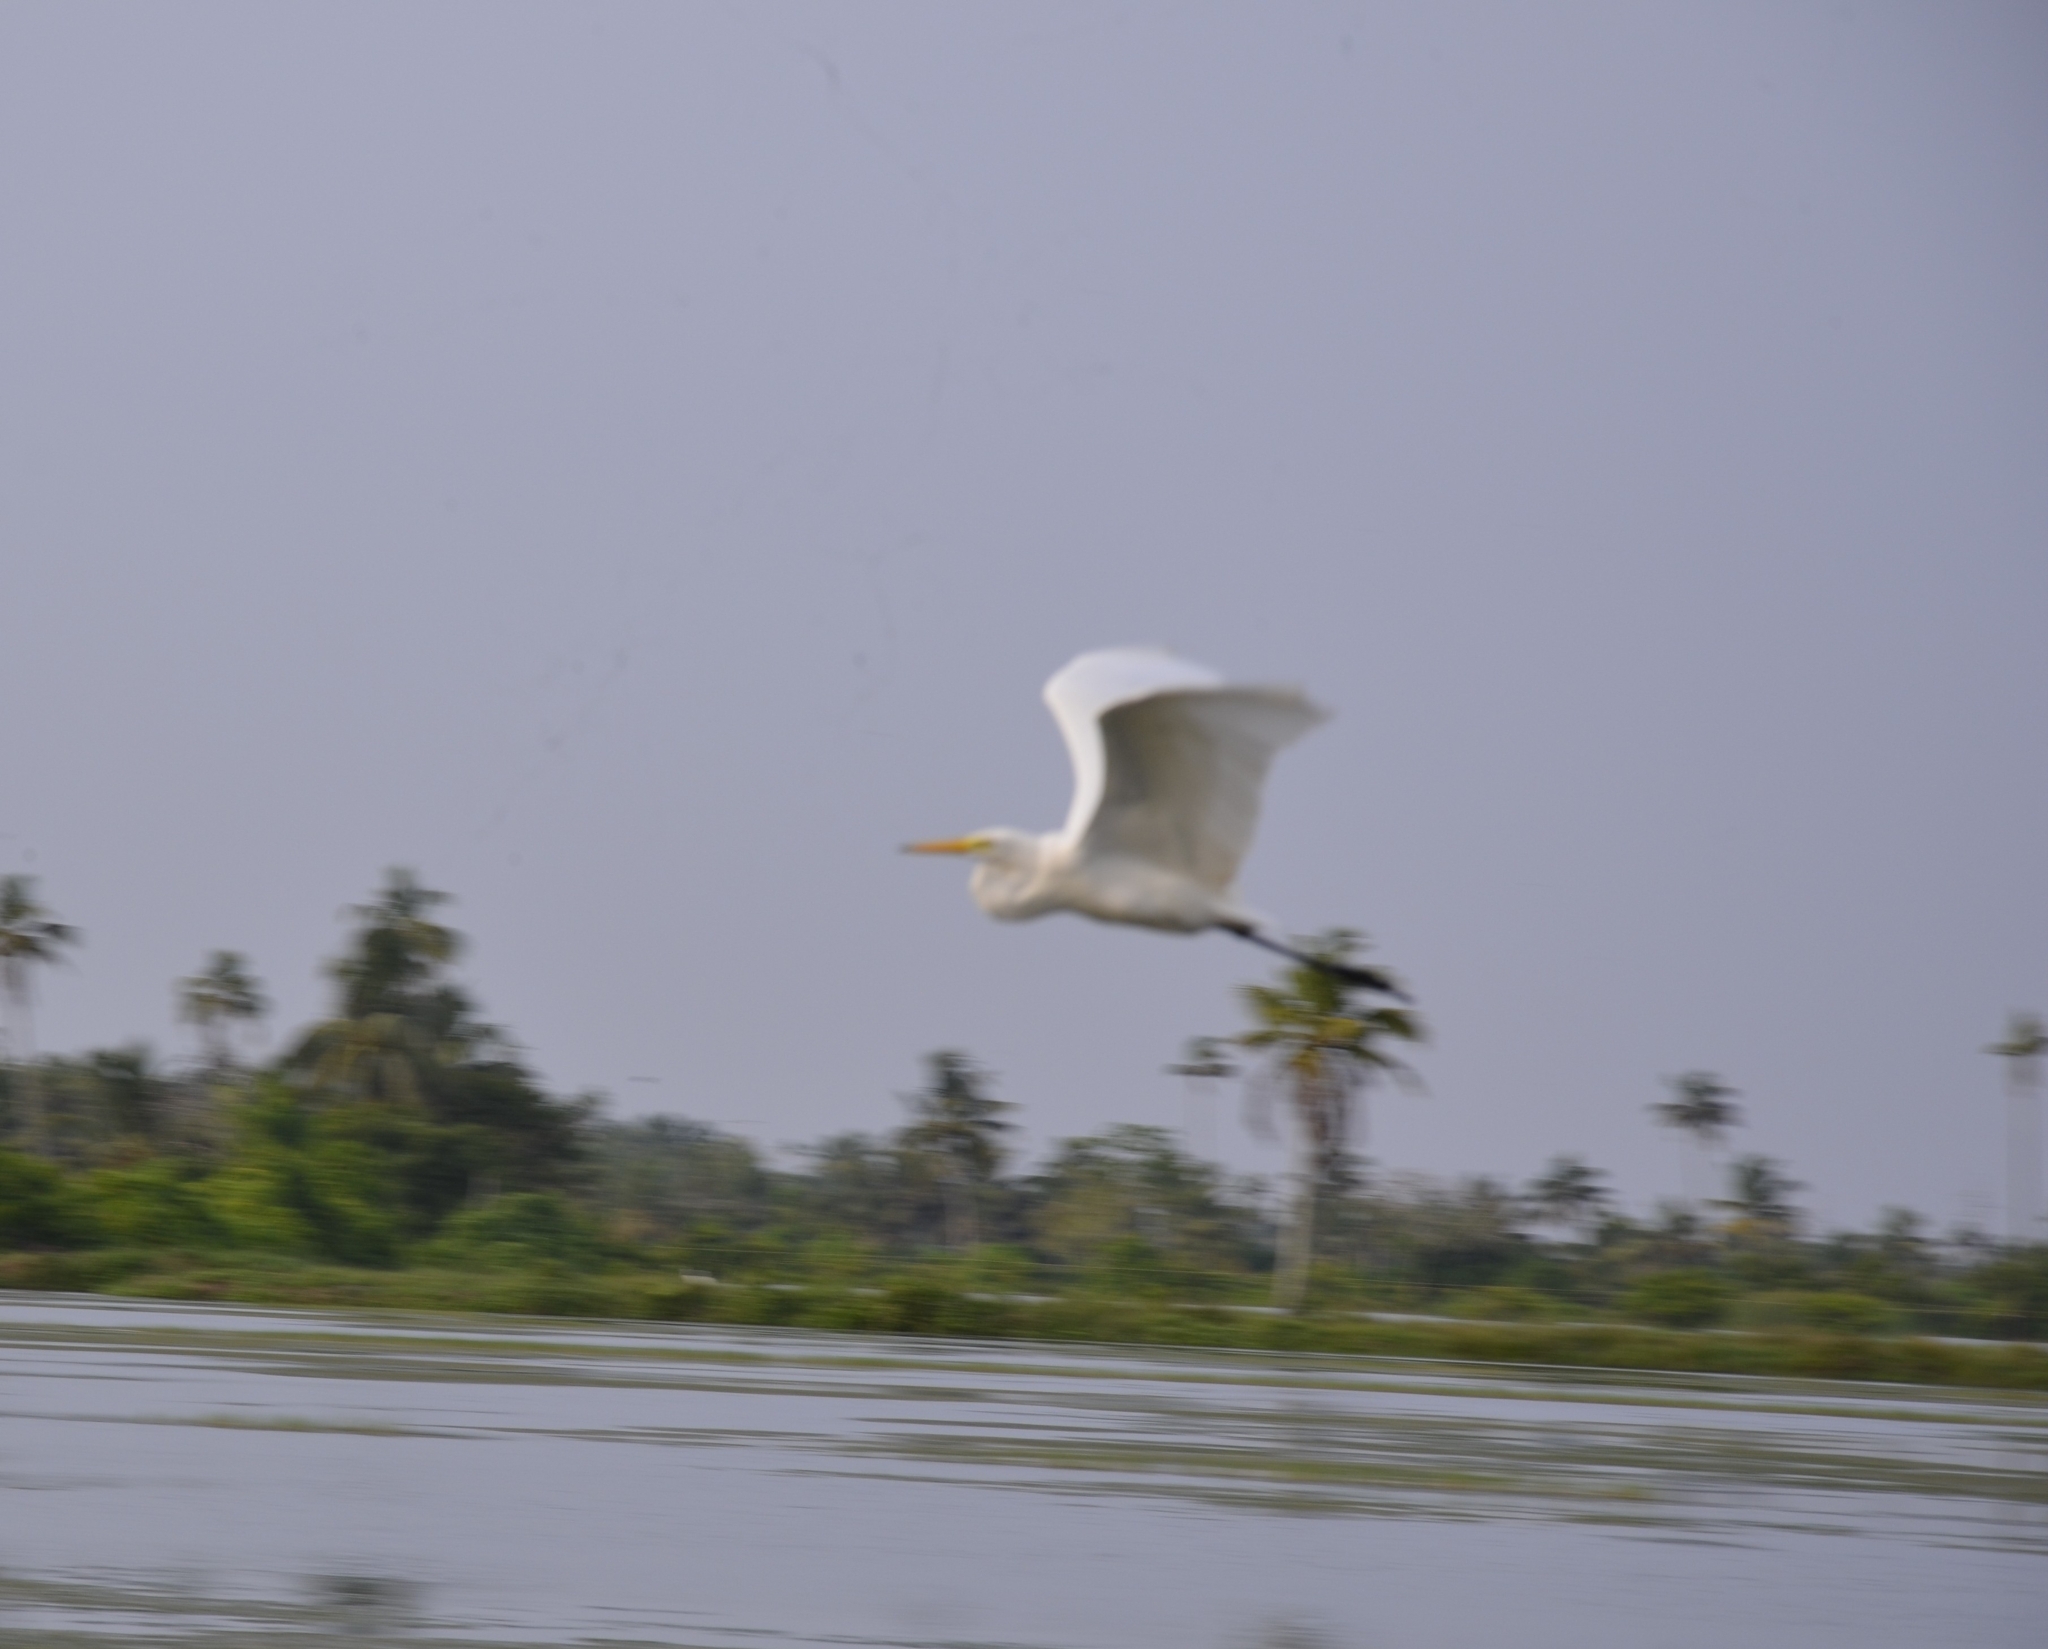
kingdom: Animalia
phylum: Chordata
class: Aves
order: Pelecaniformes
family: Ardeidae
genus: Egretta
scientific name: Egretta intermedia
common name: Intermediate egret
